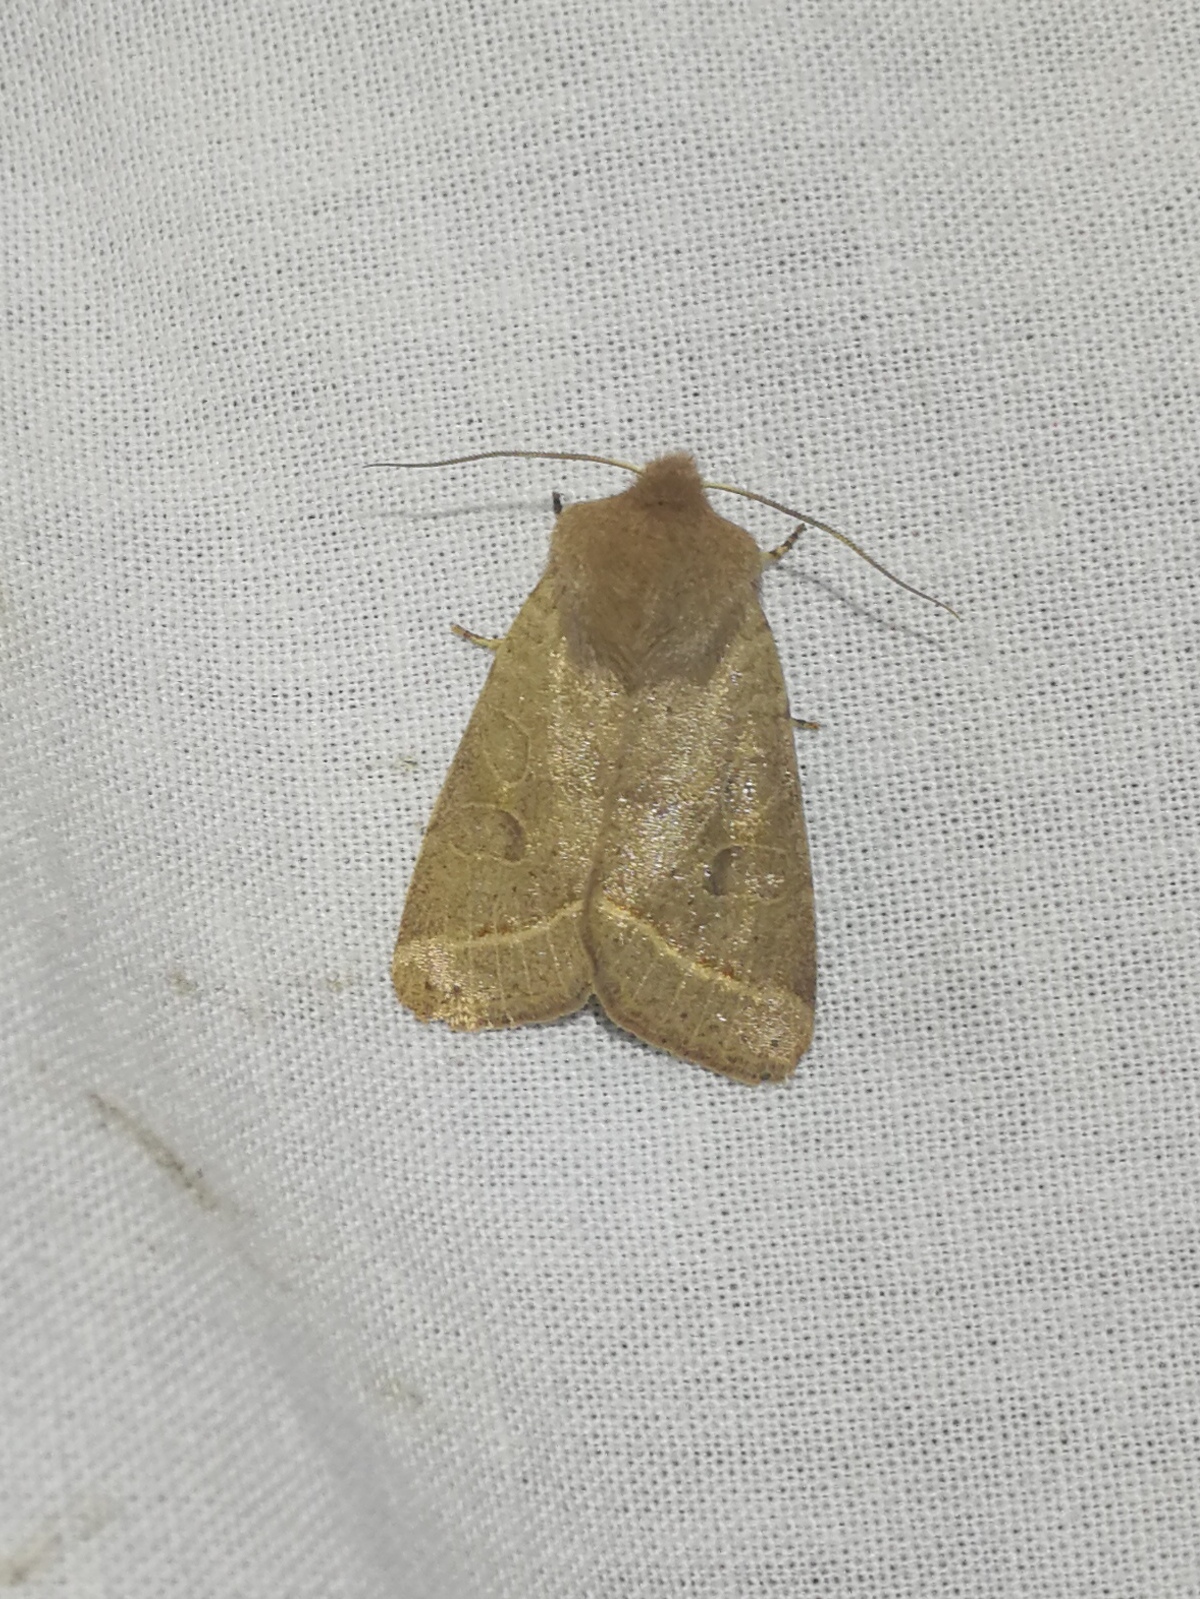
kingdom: Animalia
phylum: Arthropoda
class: Insecta
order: Lepidoptera
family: Noctuidae
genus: Orthosia
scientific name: Orthosia cerasi
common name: Common quaker
